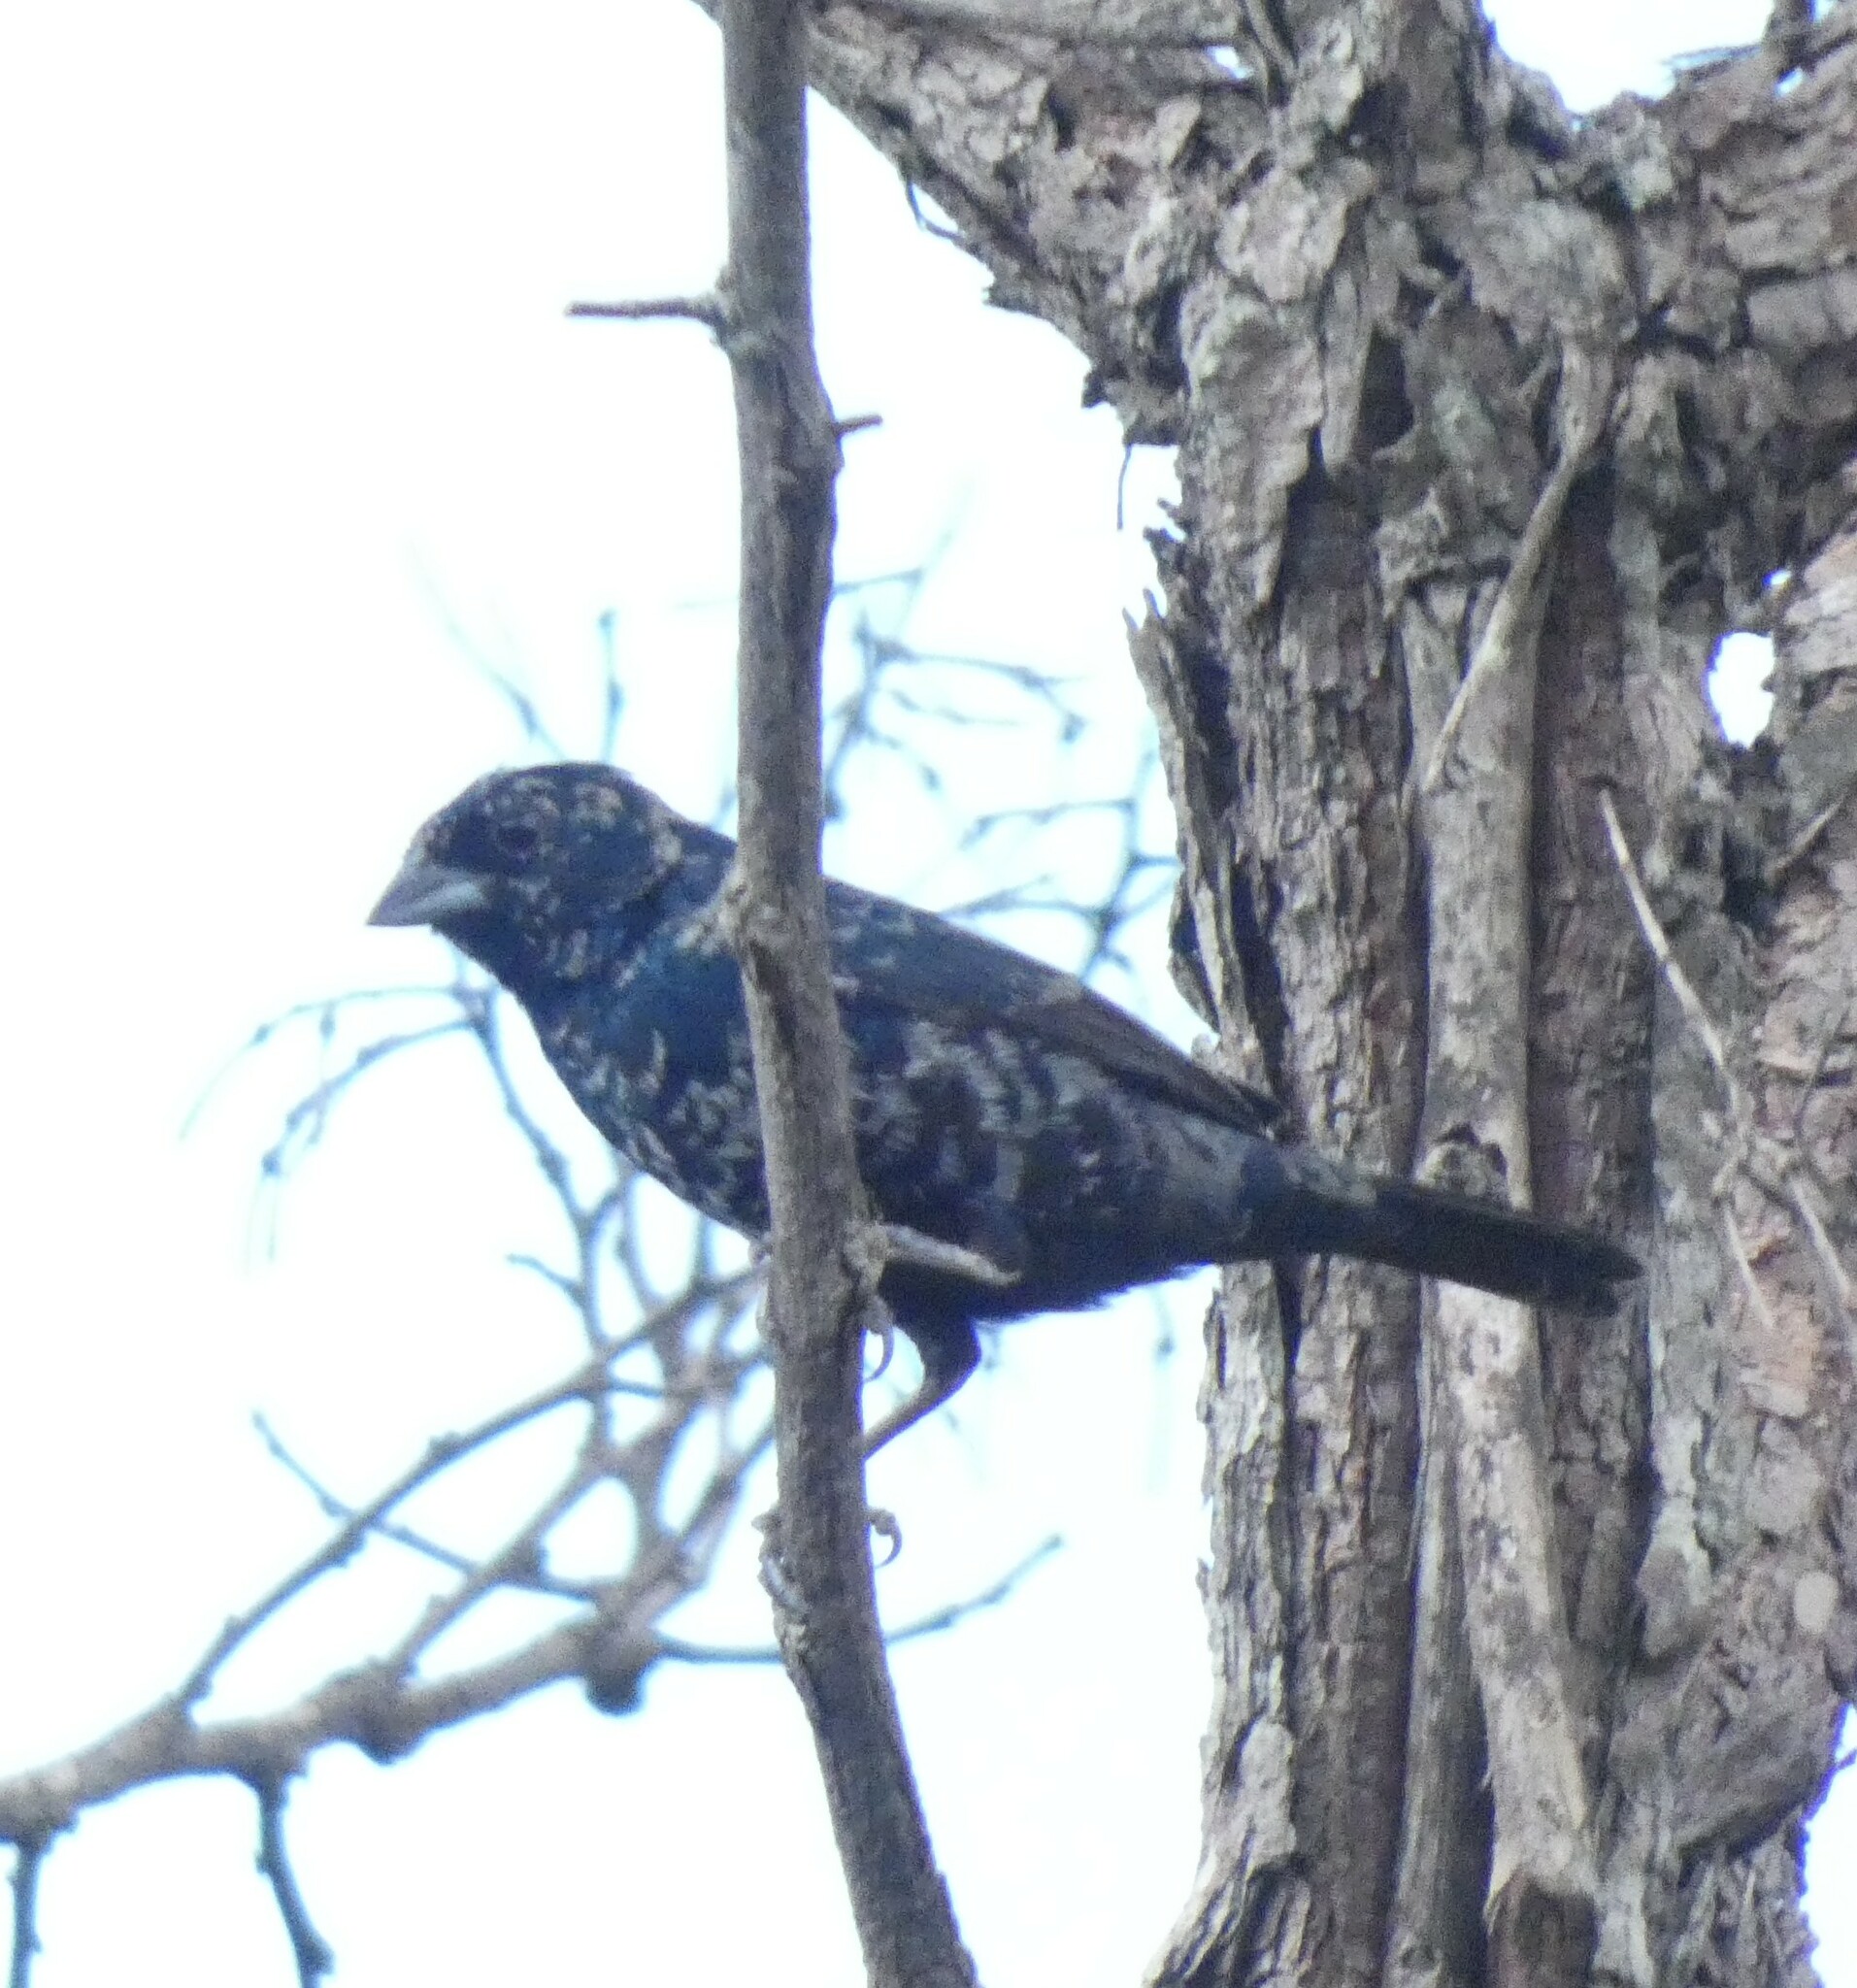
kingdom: Animalia
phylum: Chordata
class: Aves
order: Passeriformes
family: Thraupidae
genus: Volatinia
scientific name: Volatinia jacarina
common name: Blue-black grassquit
